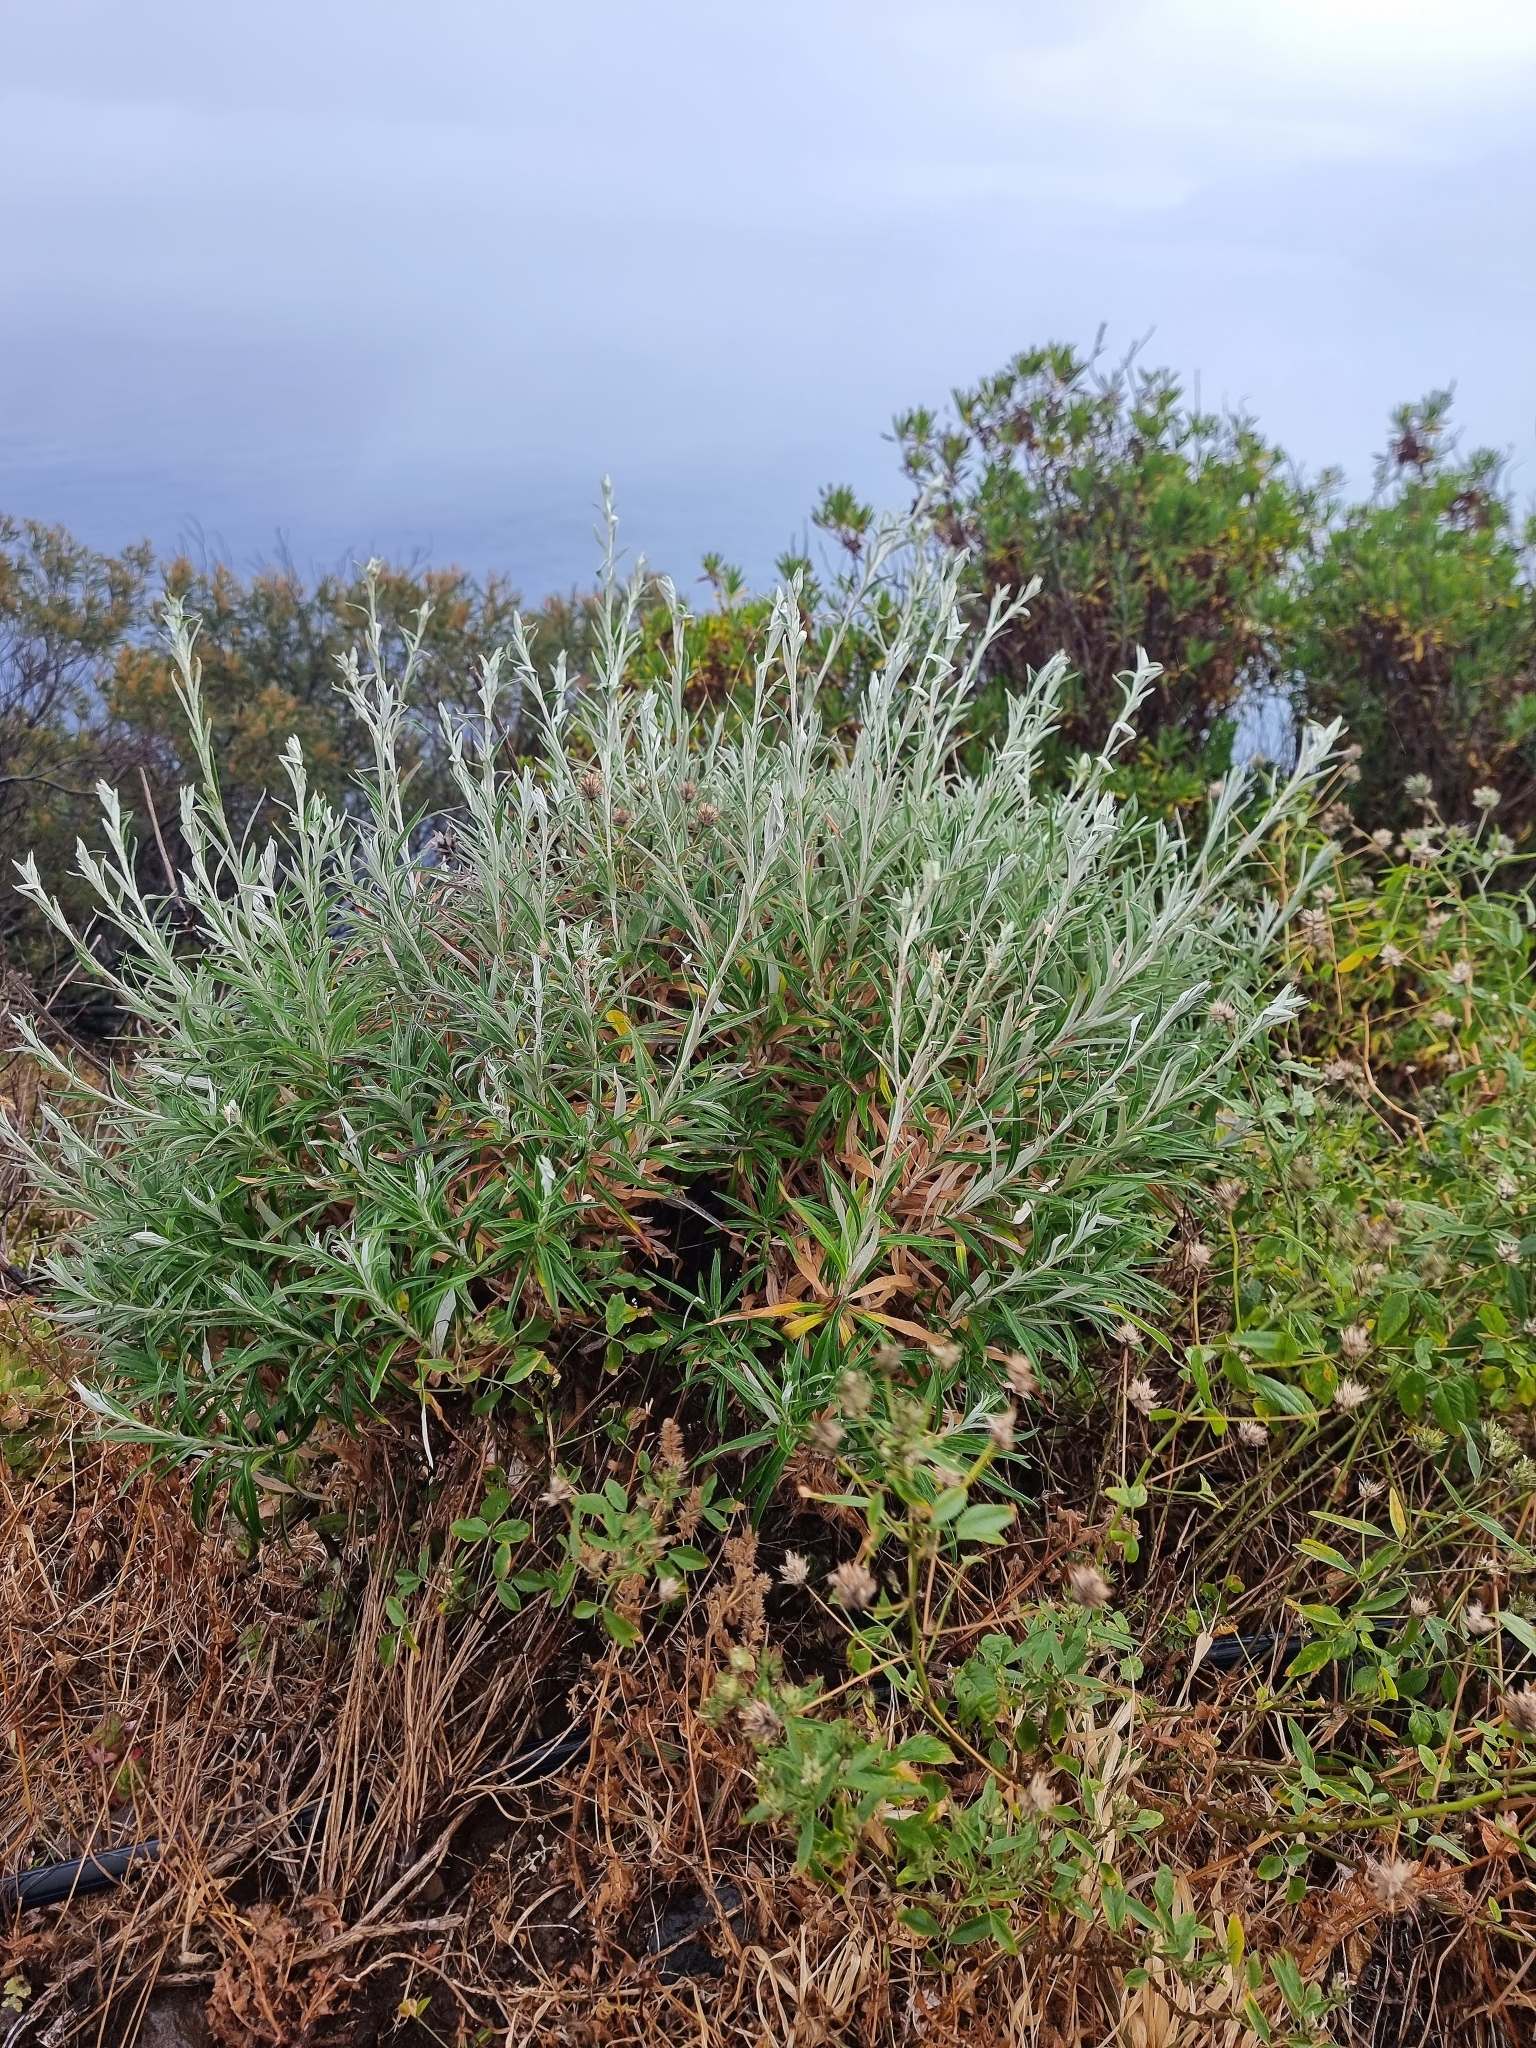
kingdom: Plantae
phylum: Tracheophyta
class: Magnoliopsida
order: Asterales
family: Asteraceae
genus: Carlina
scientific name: Carlina salicifolia
